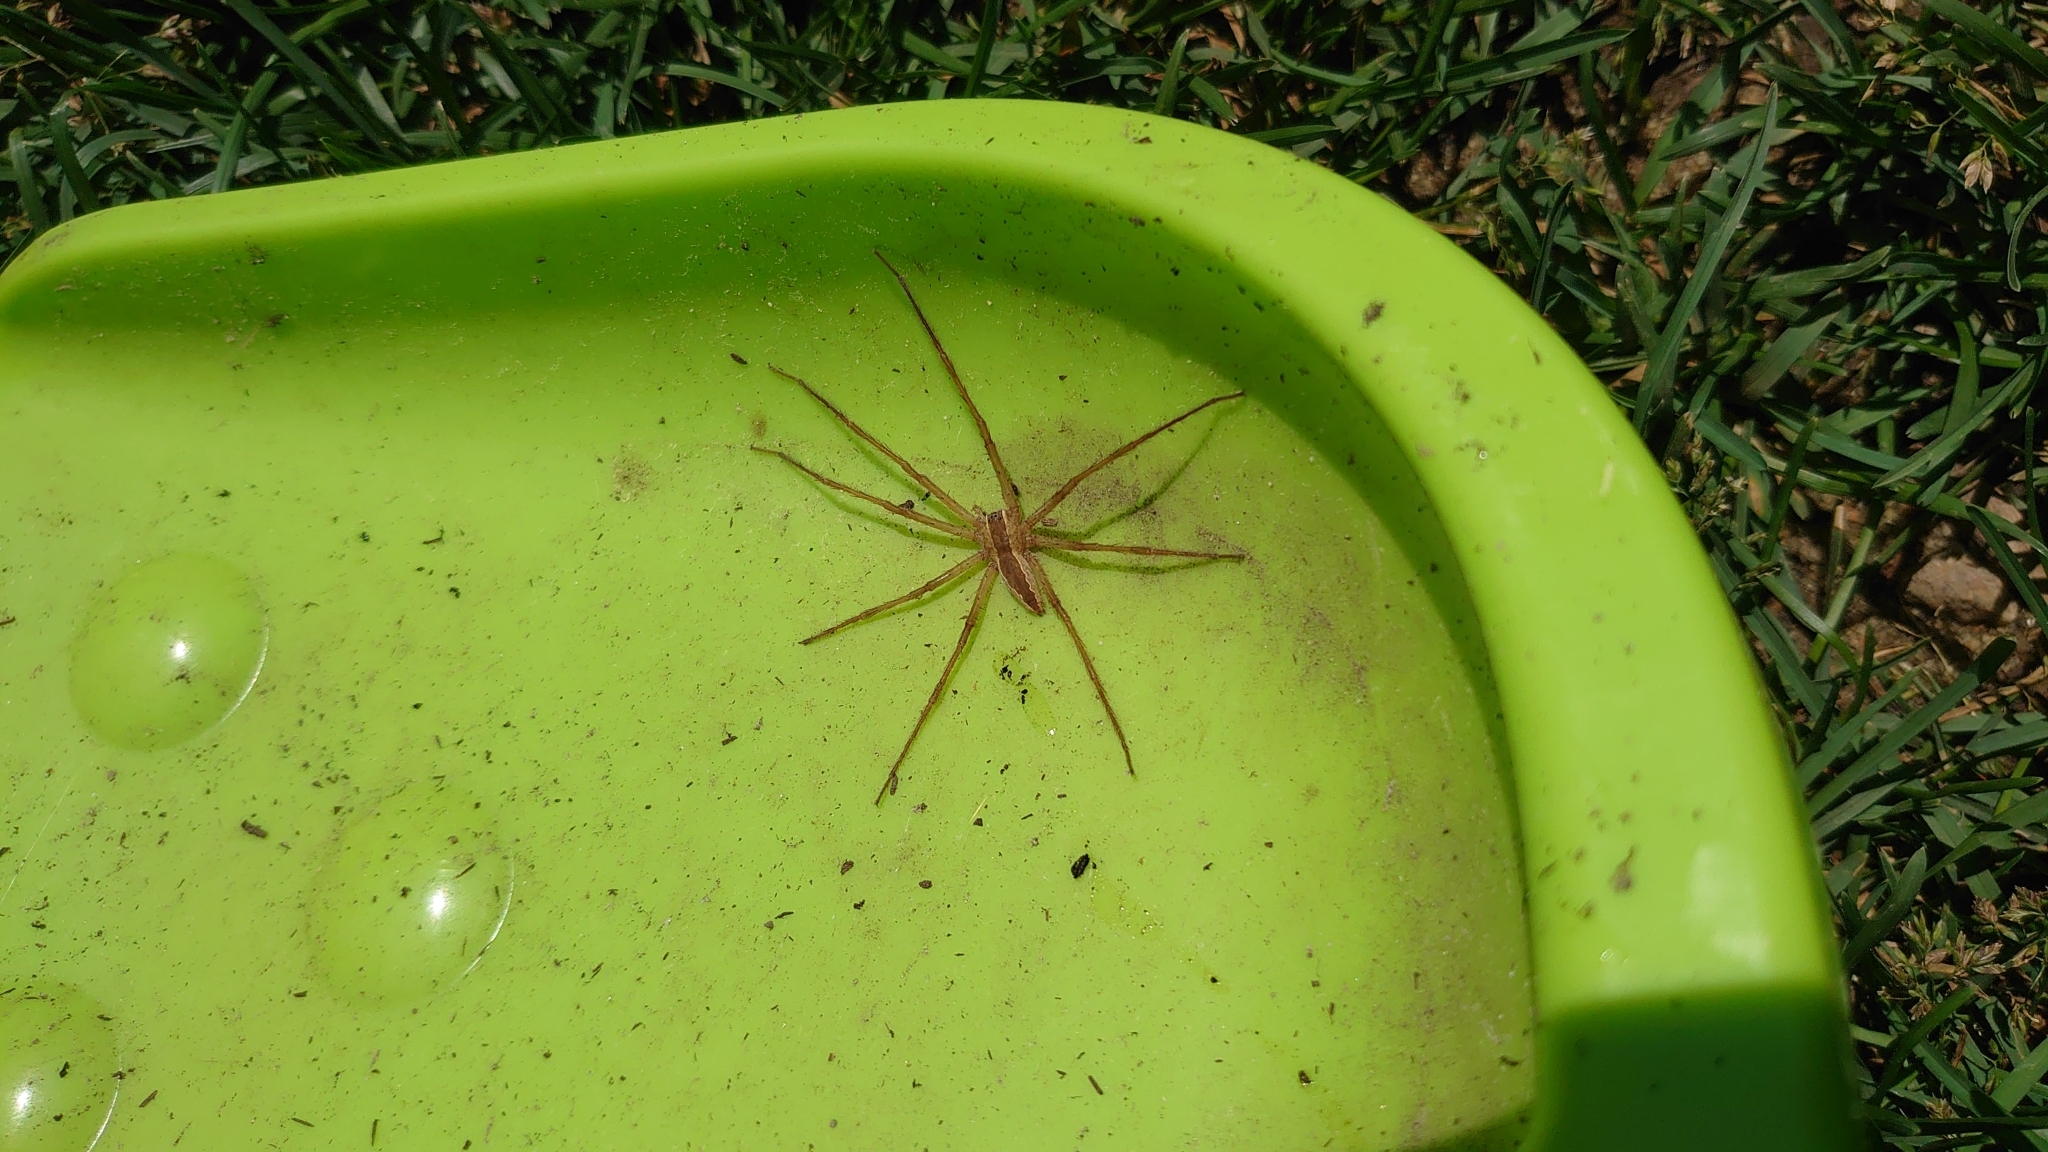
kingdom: Animalia
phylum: Arthropoda
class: Arachnida
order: Araneae
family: Pisauridae
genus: Pisaurina
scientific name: Pisaurina mira
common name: American nursery web spider
